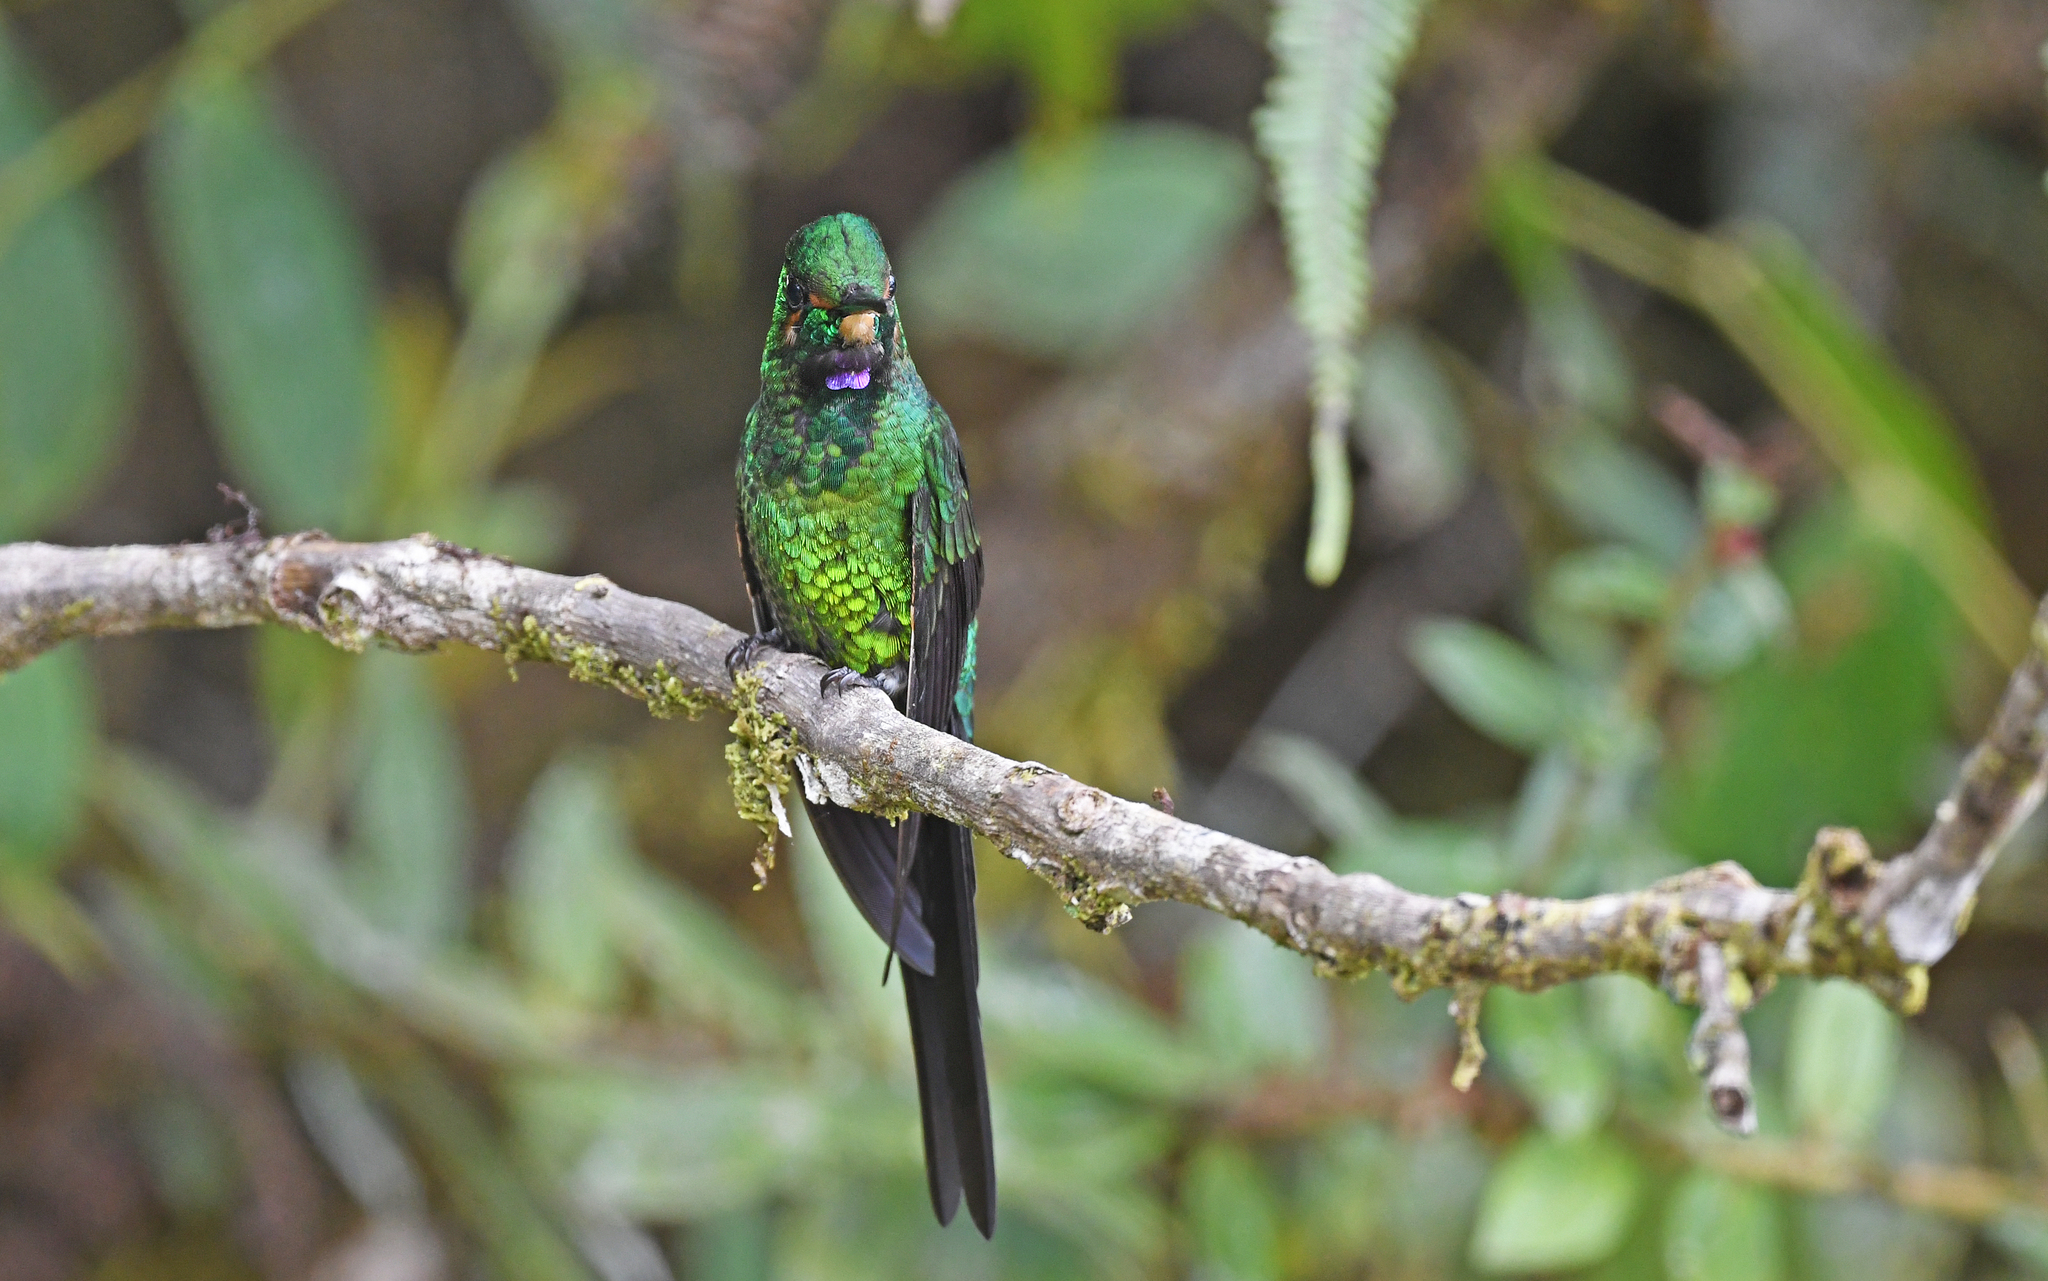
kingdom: Animalia
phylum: Chordata
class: Aves
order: Apodiformes
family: Trochilidae
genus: Heliodoxa
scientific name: Heliodoxa imperatrix
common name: Empress brilliant
